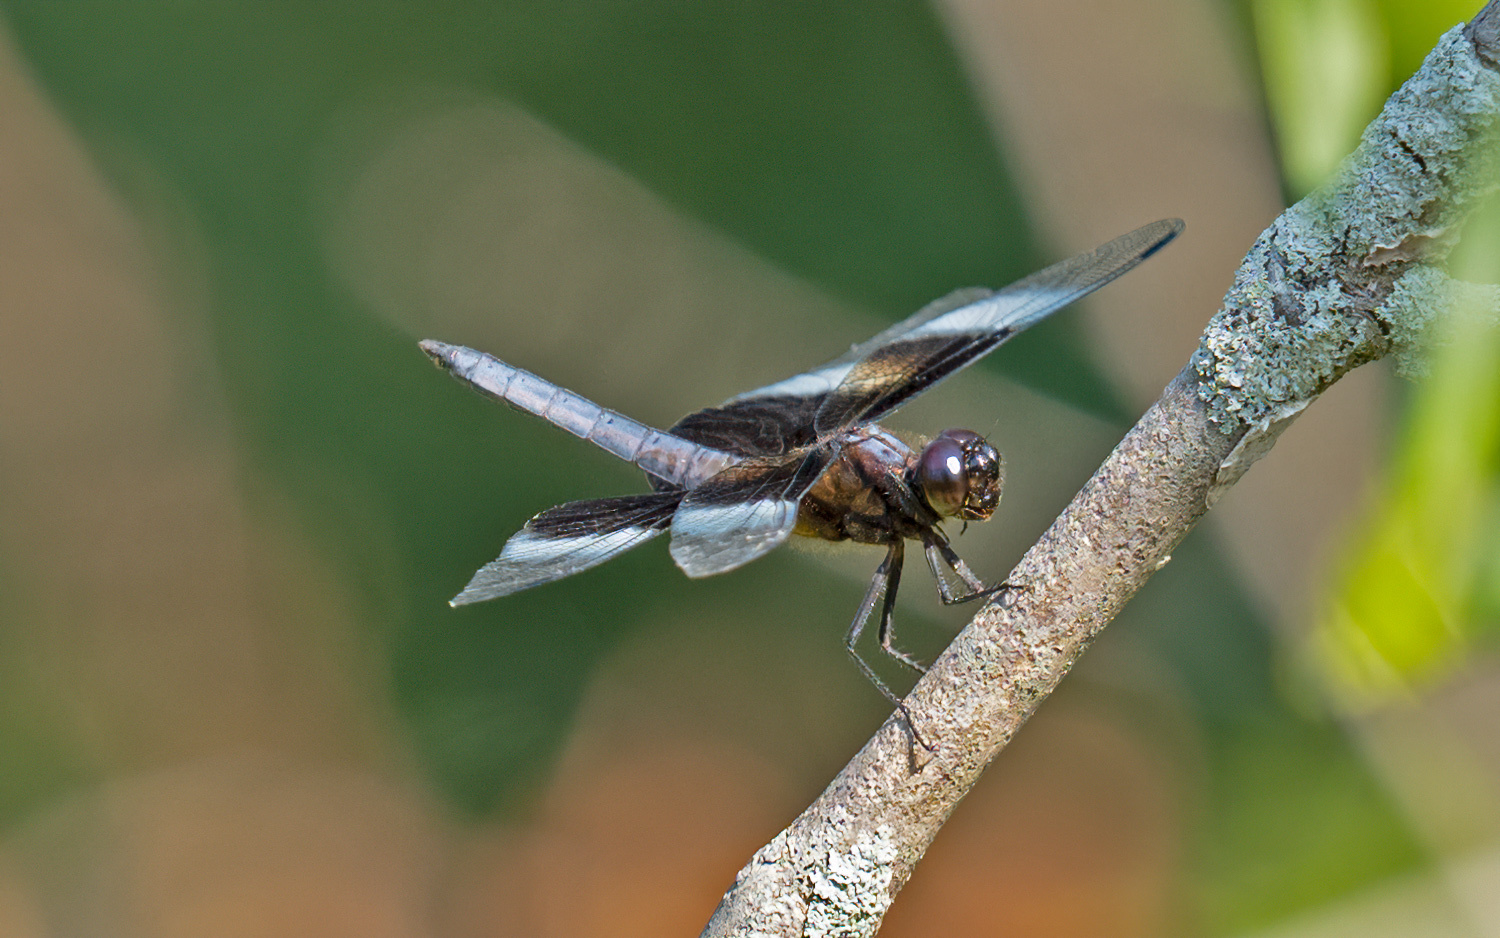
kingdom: Animalia
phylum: Arthropoda
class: Insecta
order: Odonata
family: Libellulidae
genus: Libellula
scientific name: Libellula luctuosa
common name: Widow skimmer
